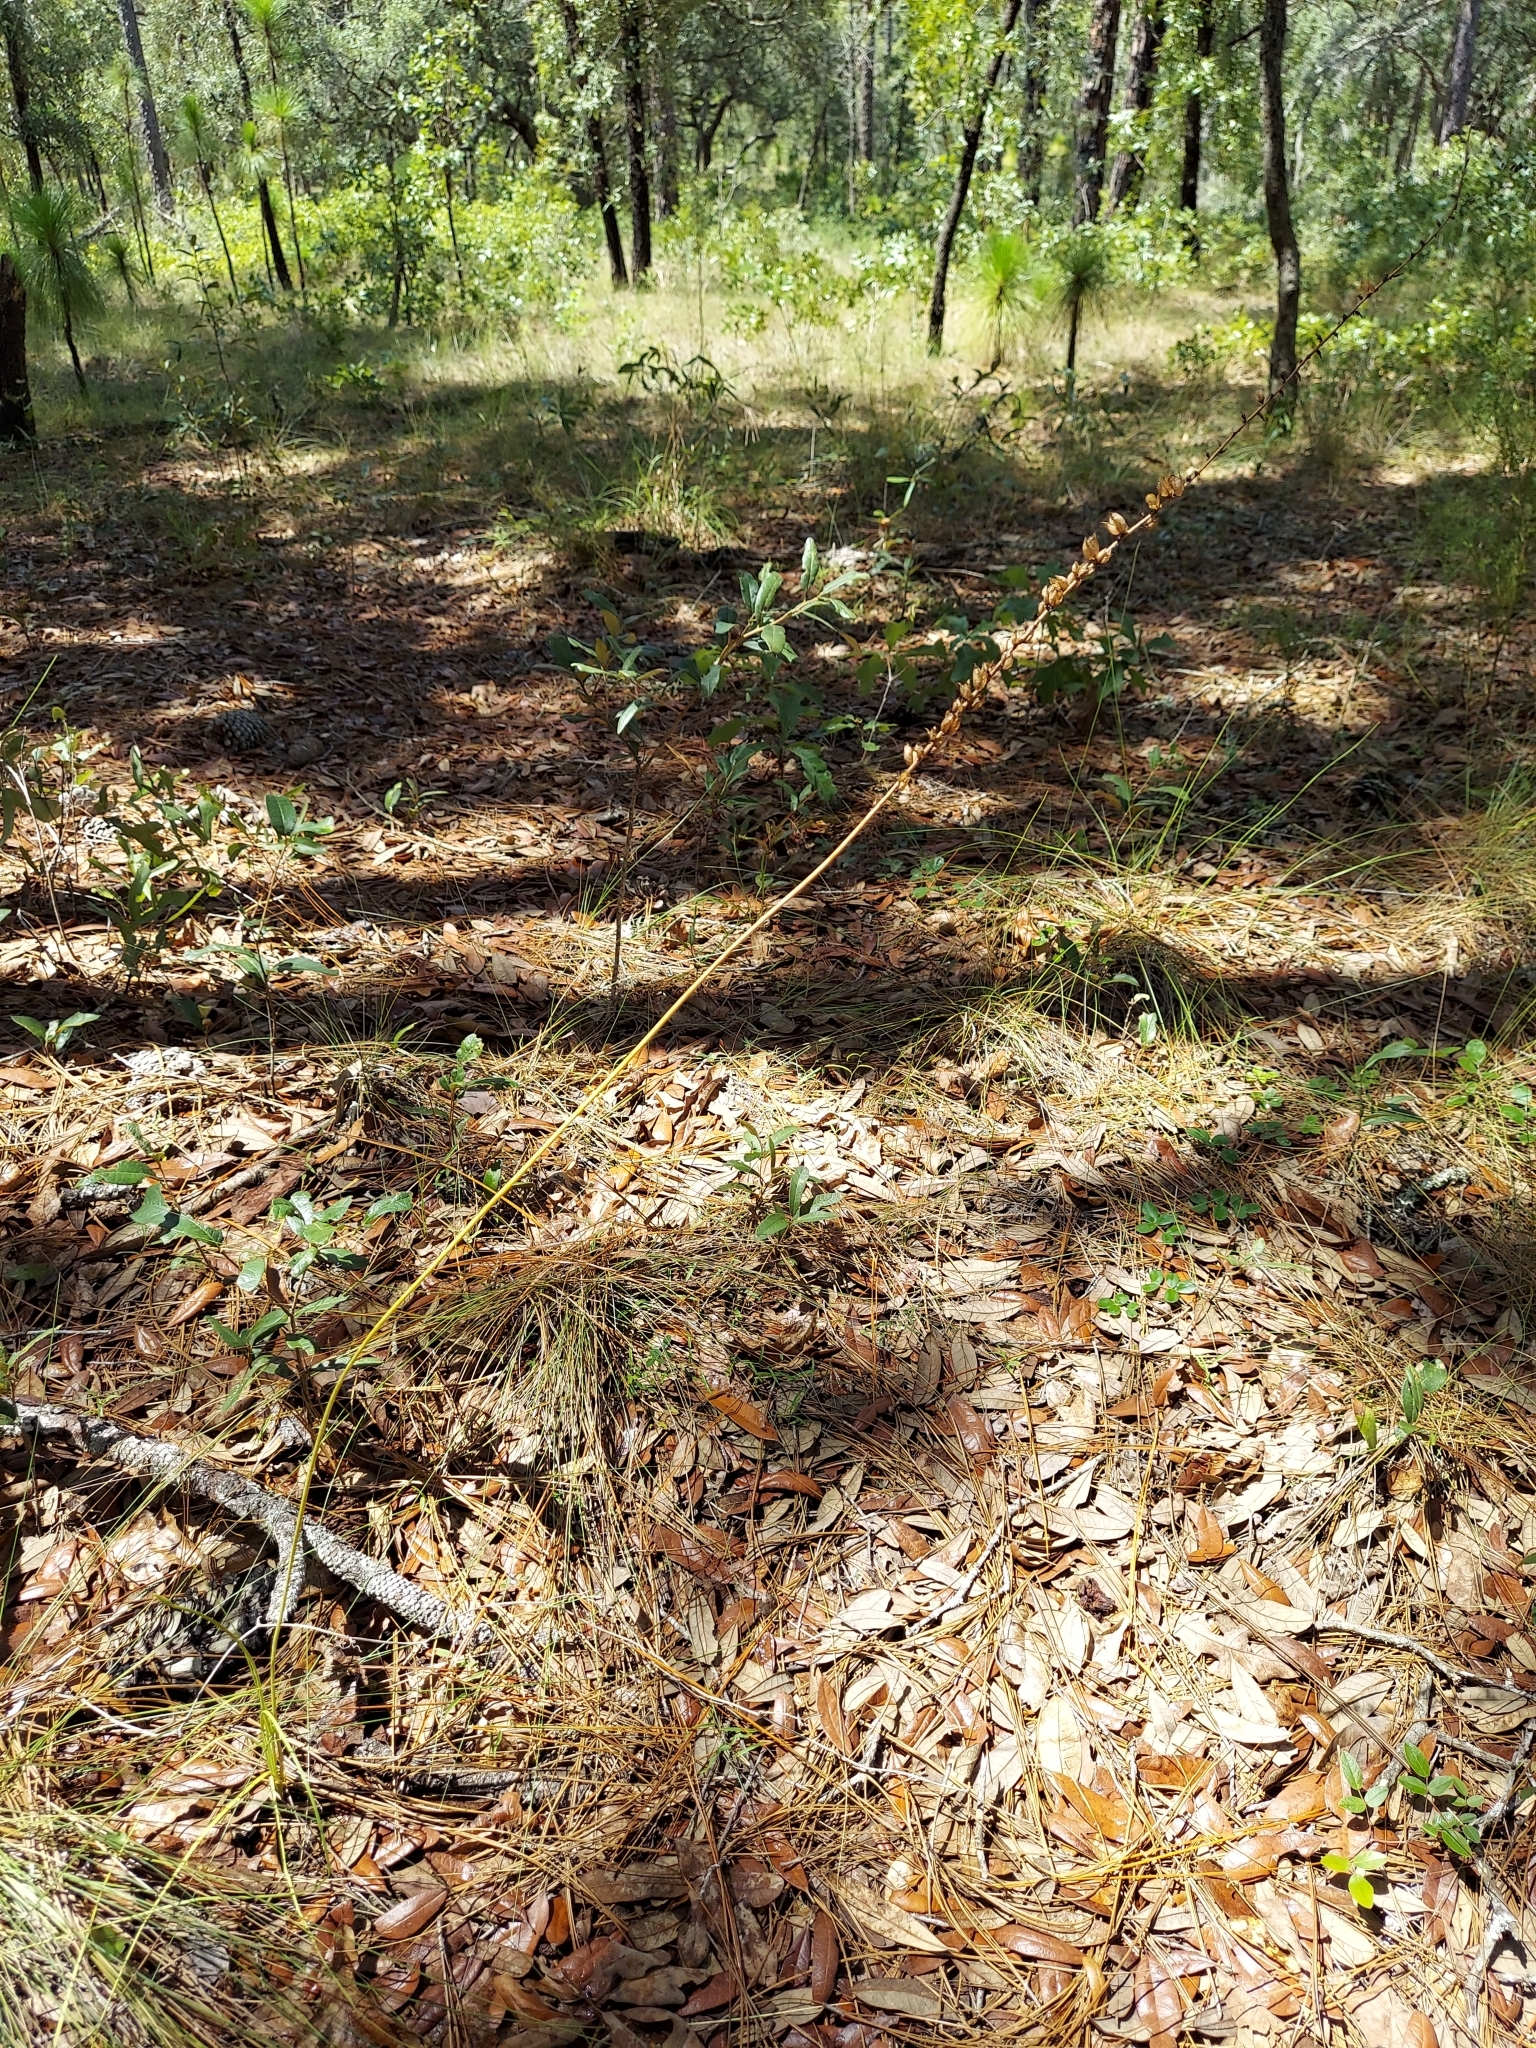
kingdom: Plantae
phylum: Tracheophyta
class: Liliopsida
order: Liliales
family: Melanthiaceae
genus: Schoenocaulon
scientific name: Schoenocaulon dubium
